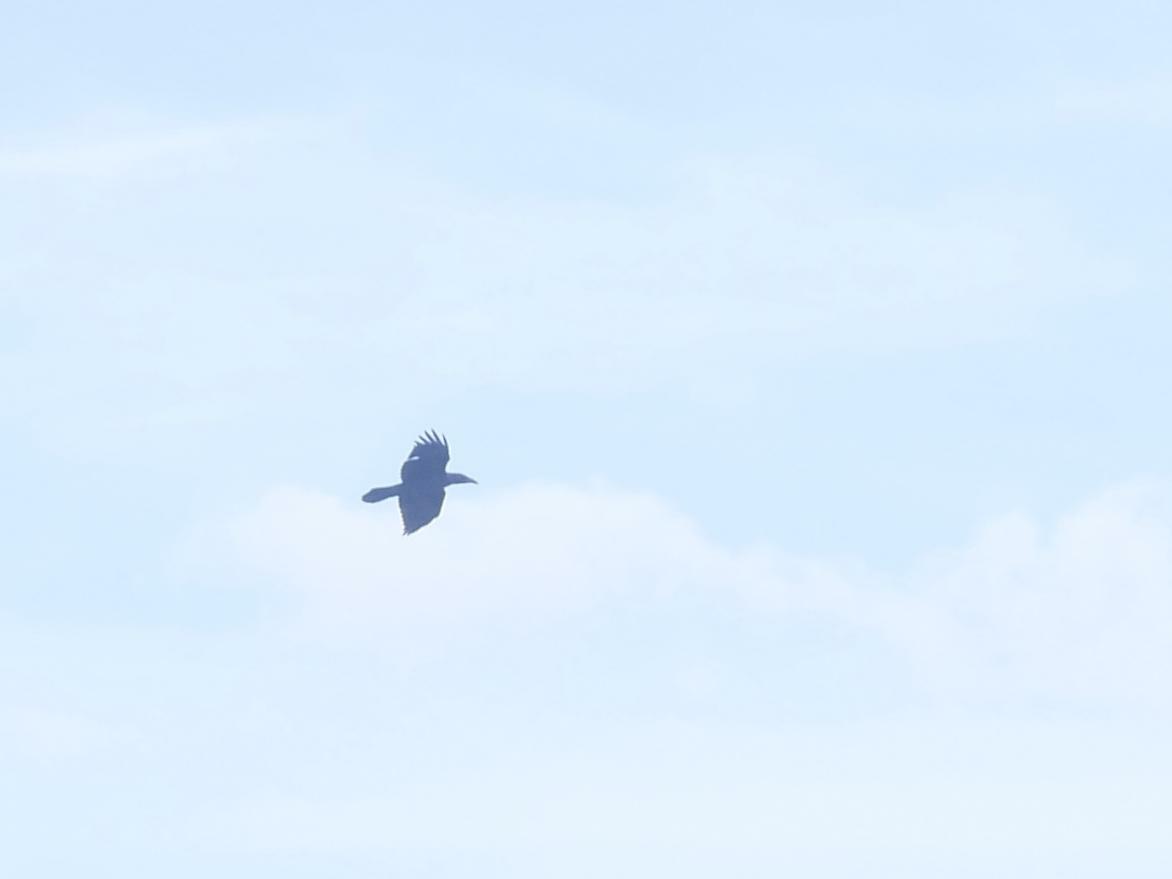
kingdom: Animalia
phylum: Chordata
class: Aves
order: Passeriformes
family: Corvidae
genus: Corvus
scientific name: Corvus corax
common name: Common raven
